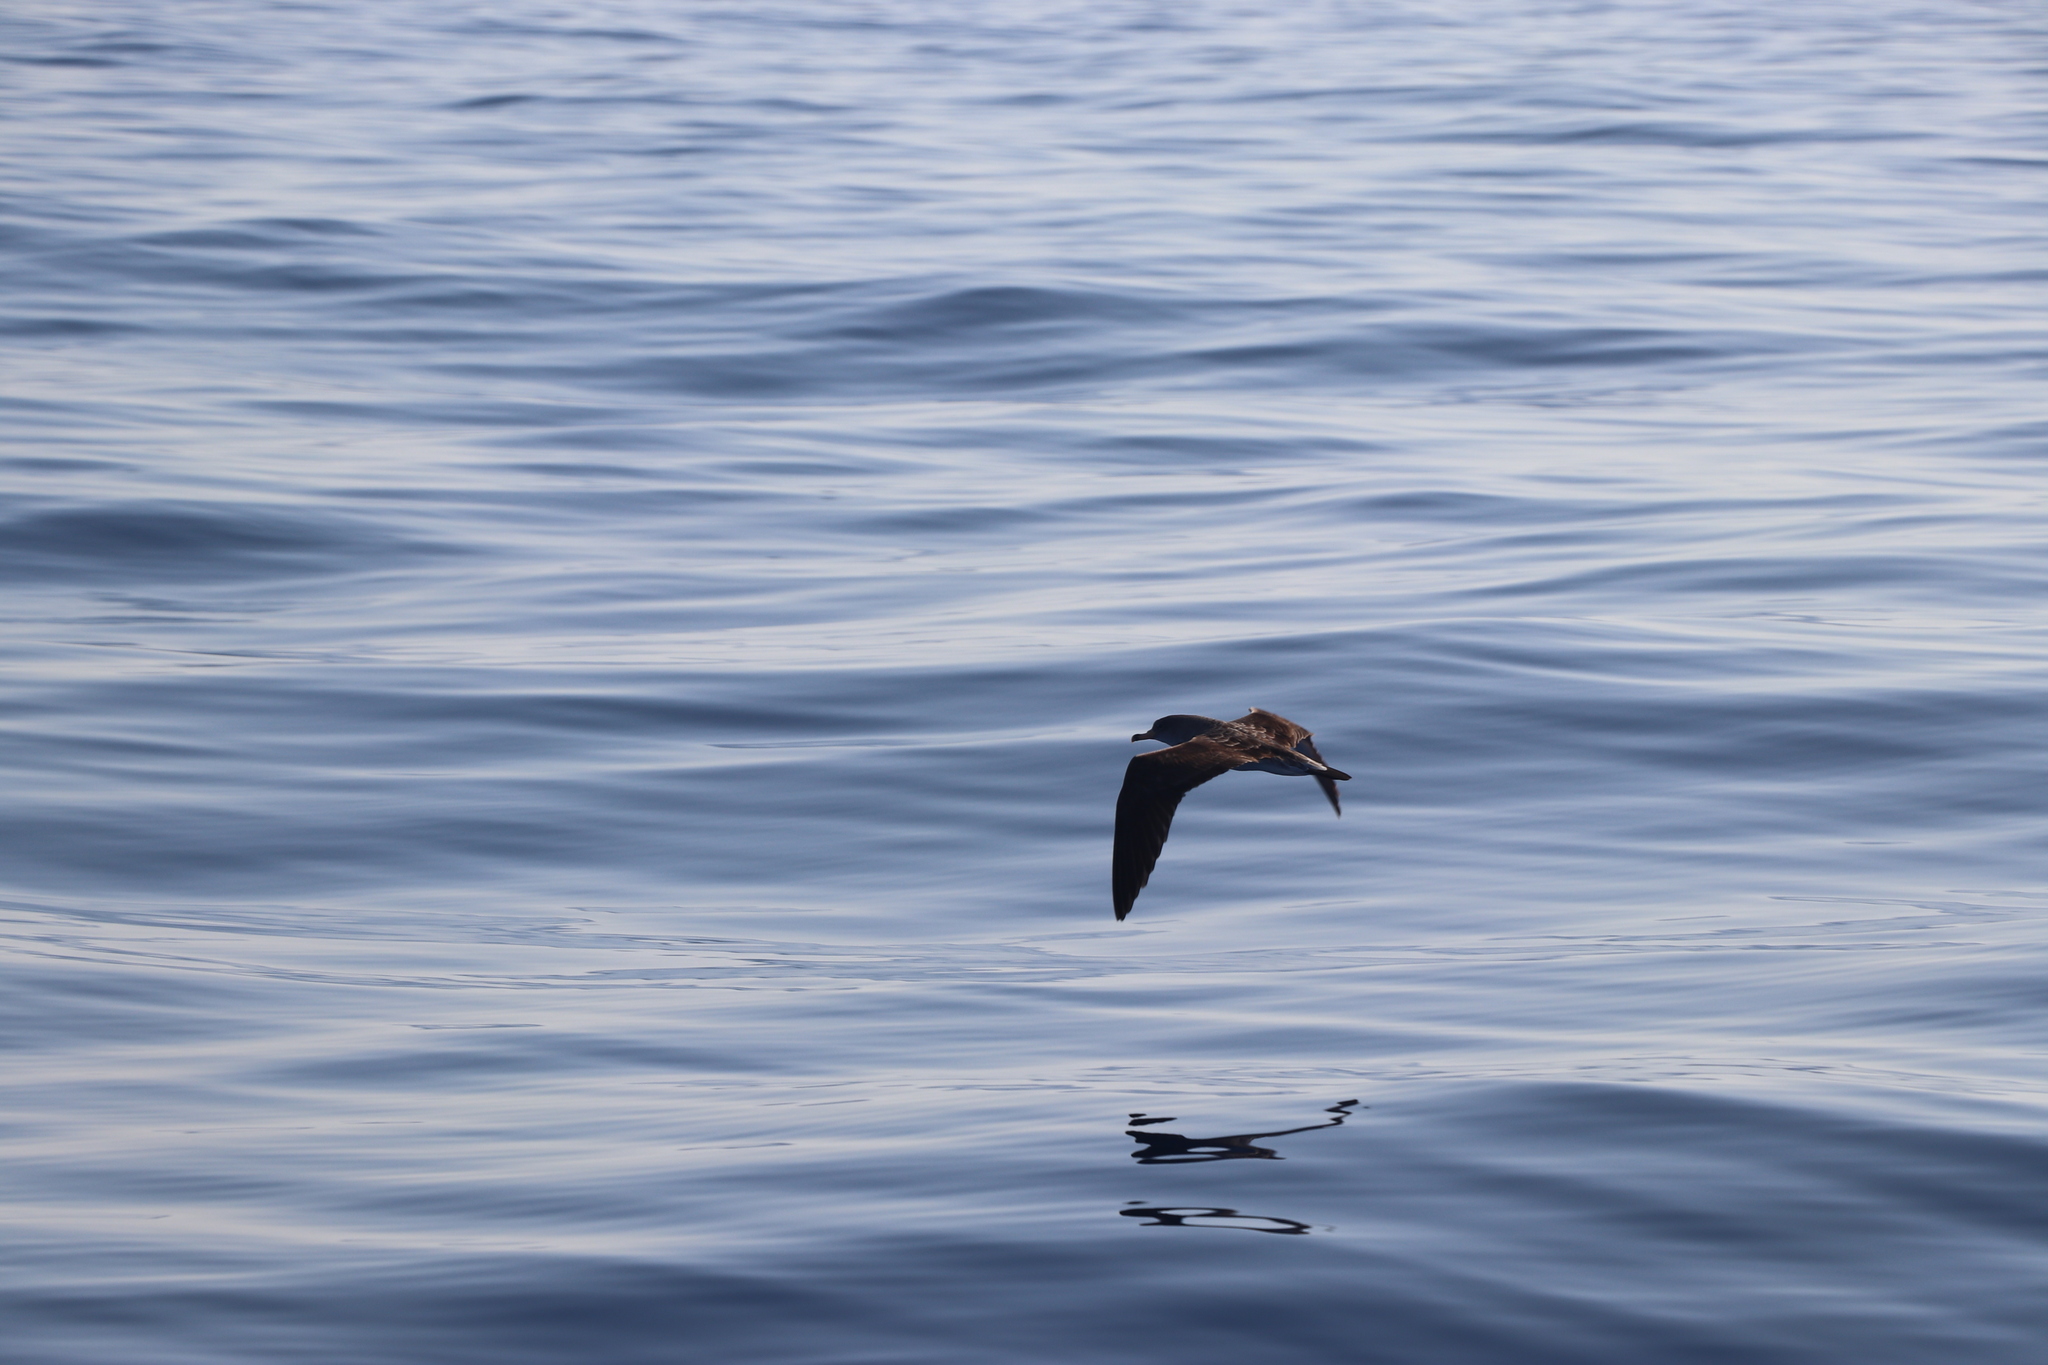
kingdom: Animalia
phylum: Chordata
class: Aves
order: Procellariiformes
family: Procellariidae
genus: Calonectris
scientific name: Calonectris diomedea
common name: Cory's shearwater
